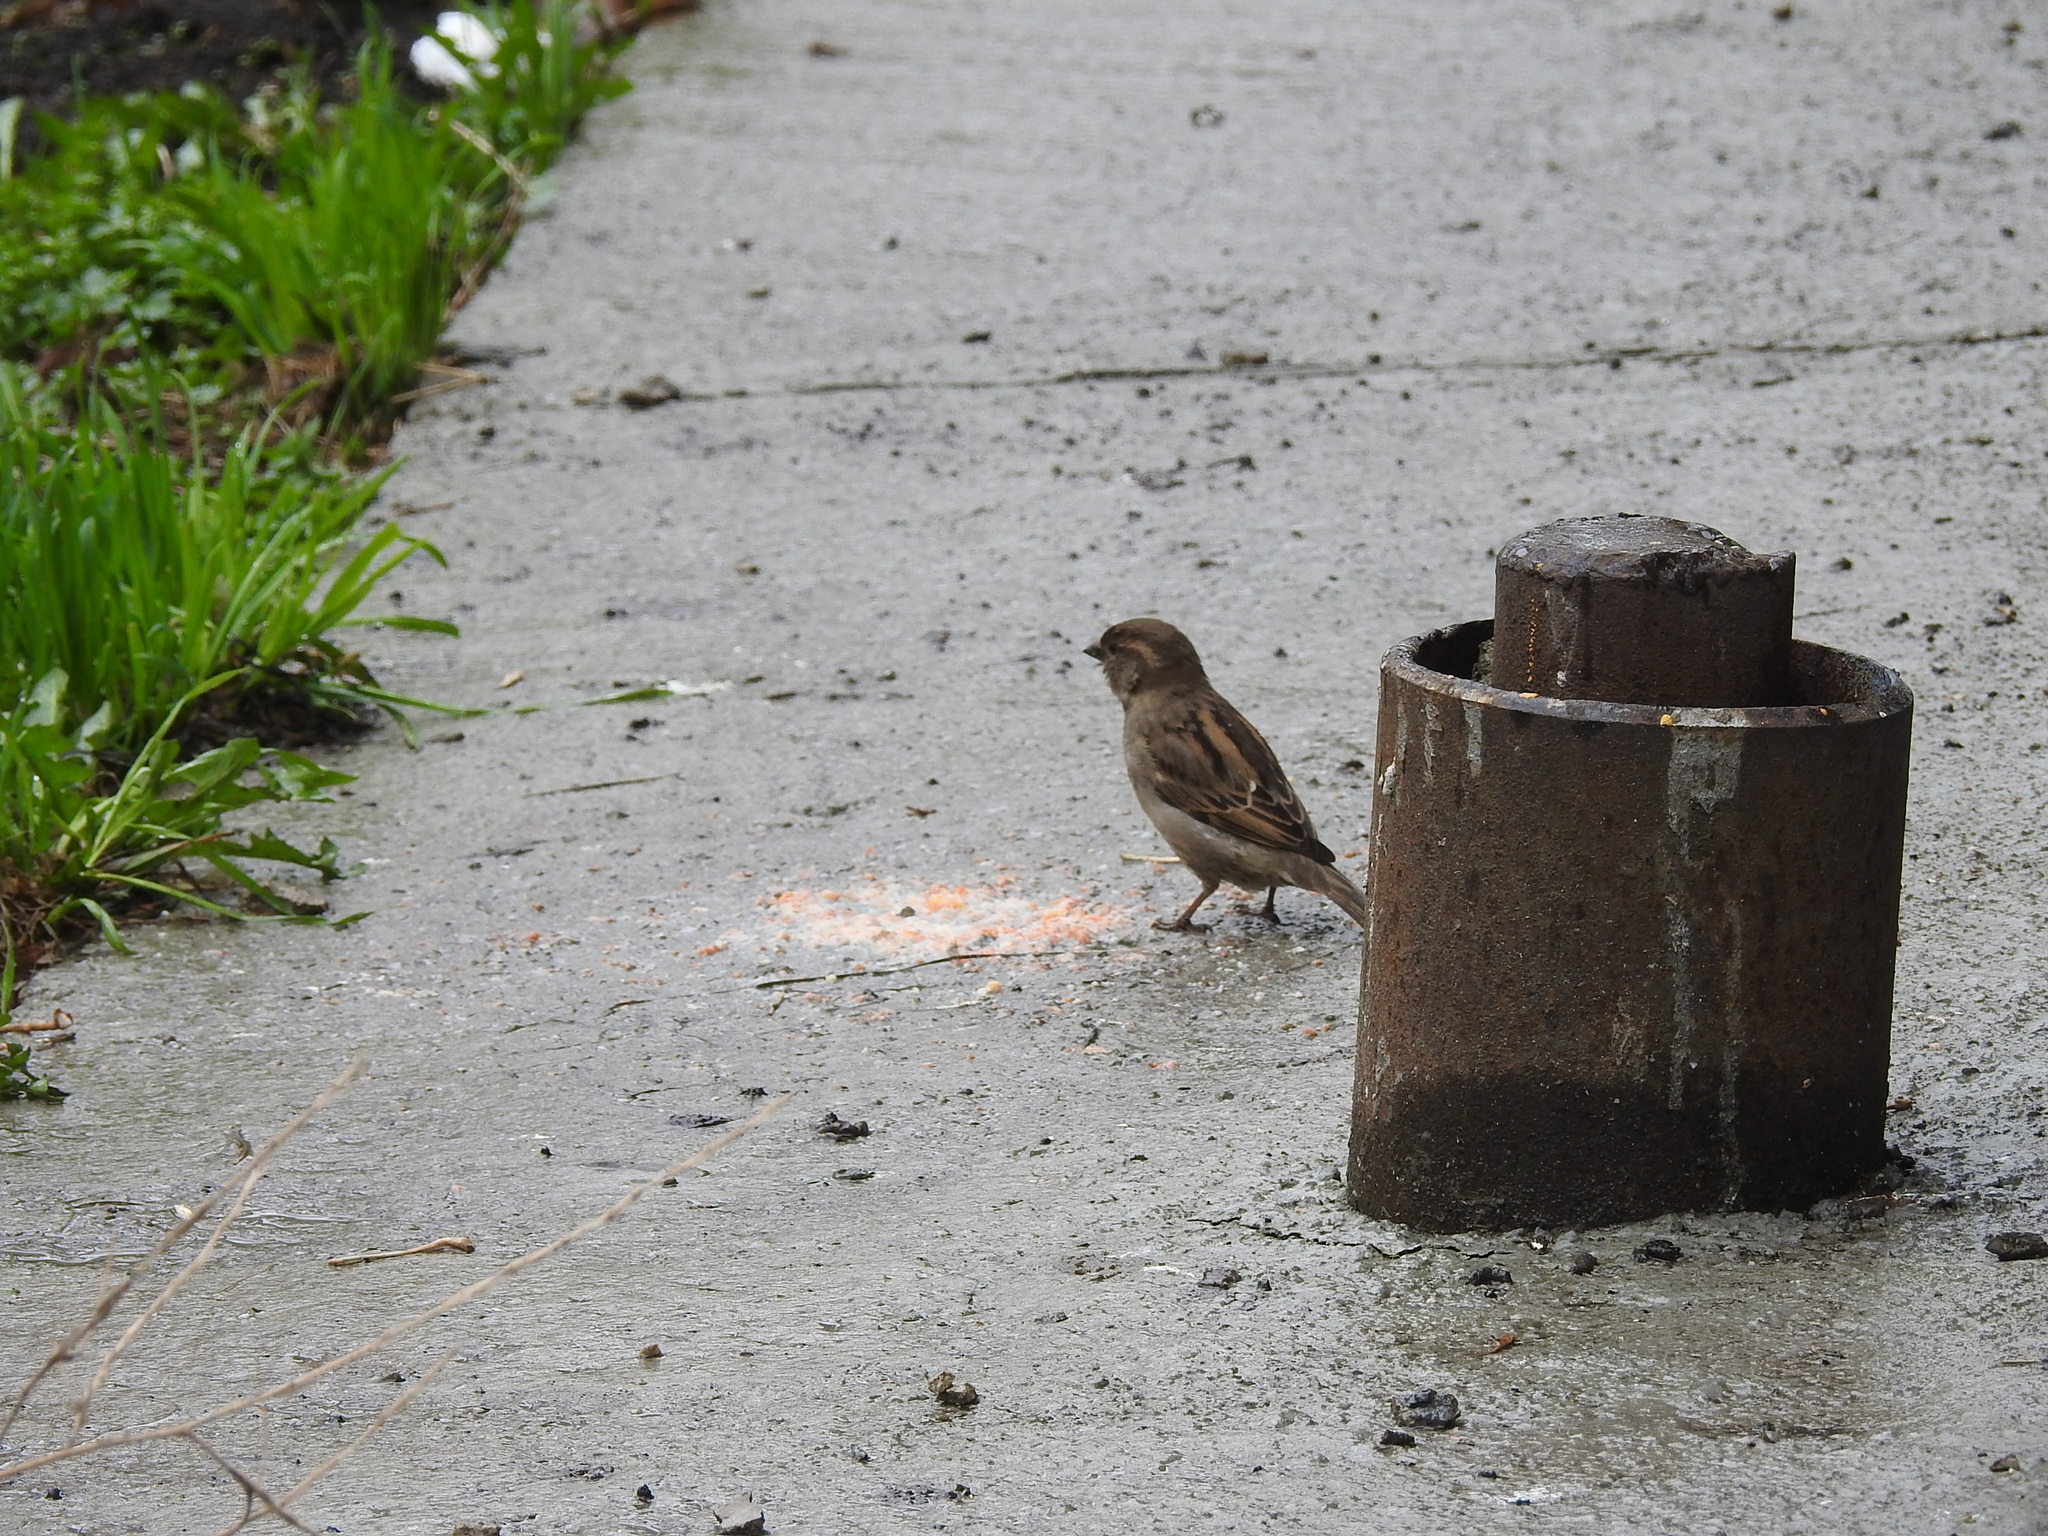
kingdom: Animalia
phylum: Chordata
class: Aves
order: Passeriformes
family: Passeridae
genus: Passer
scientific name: Passer domesticus
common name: House sparrow
